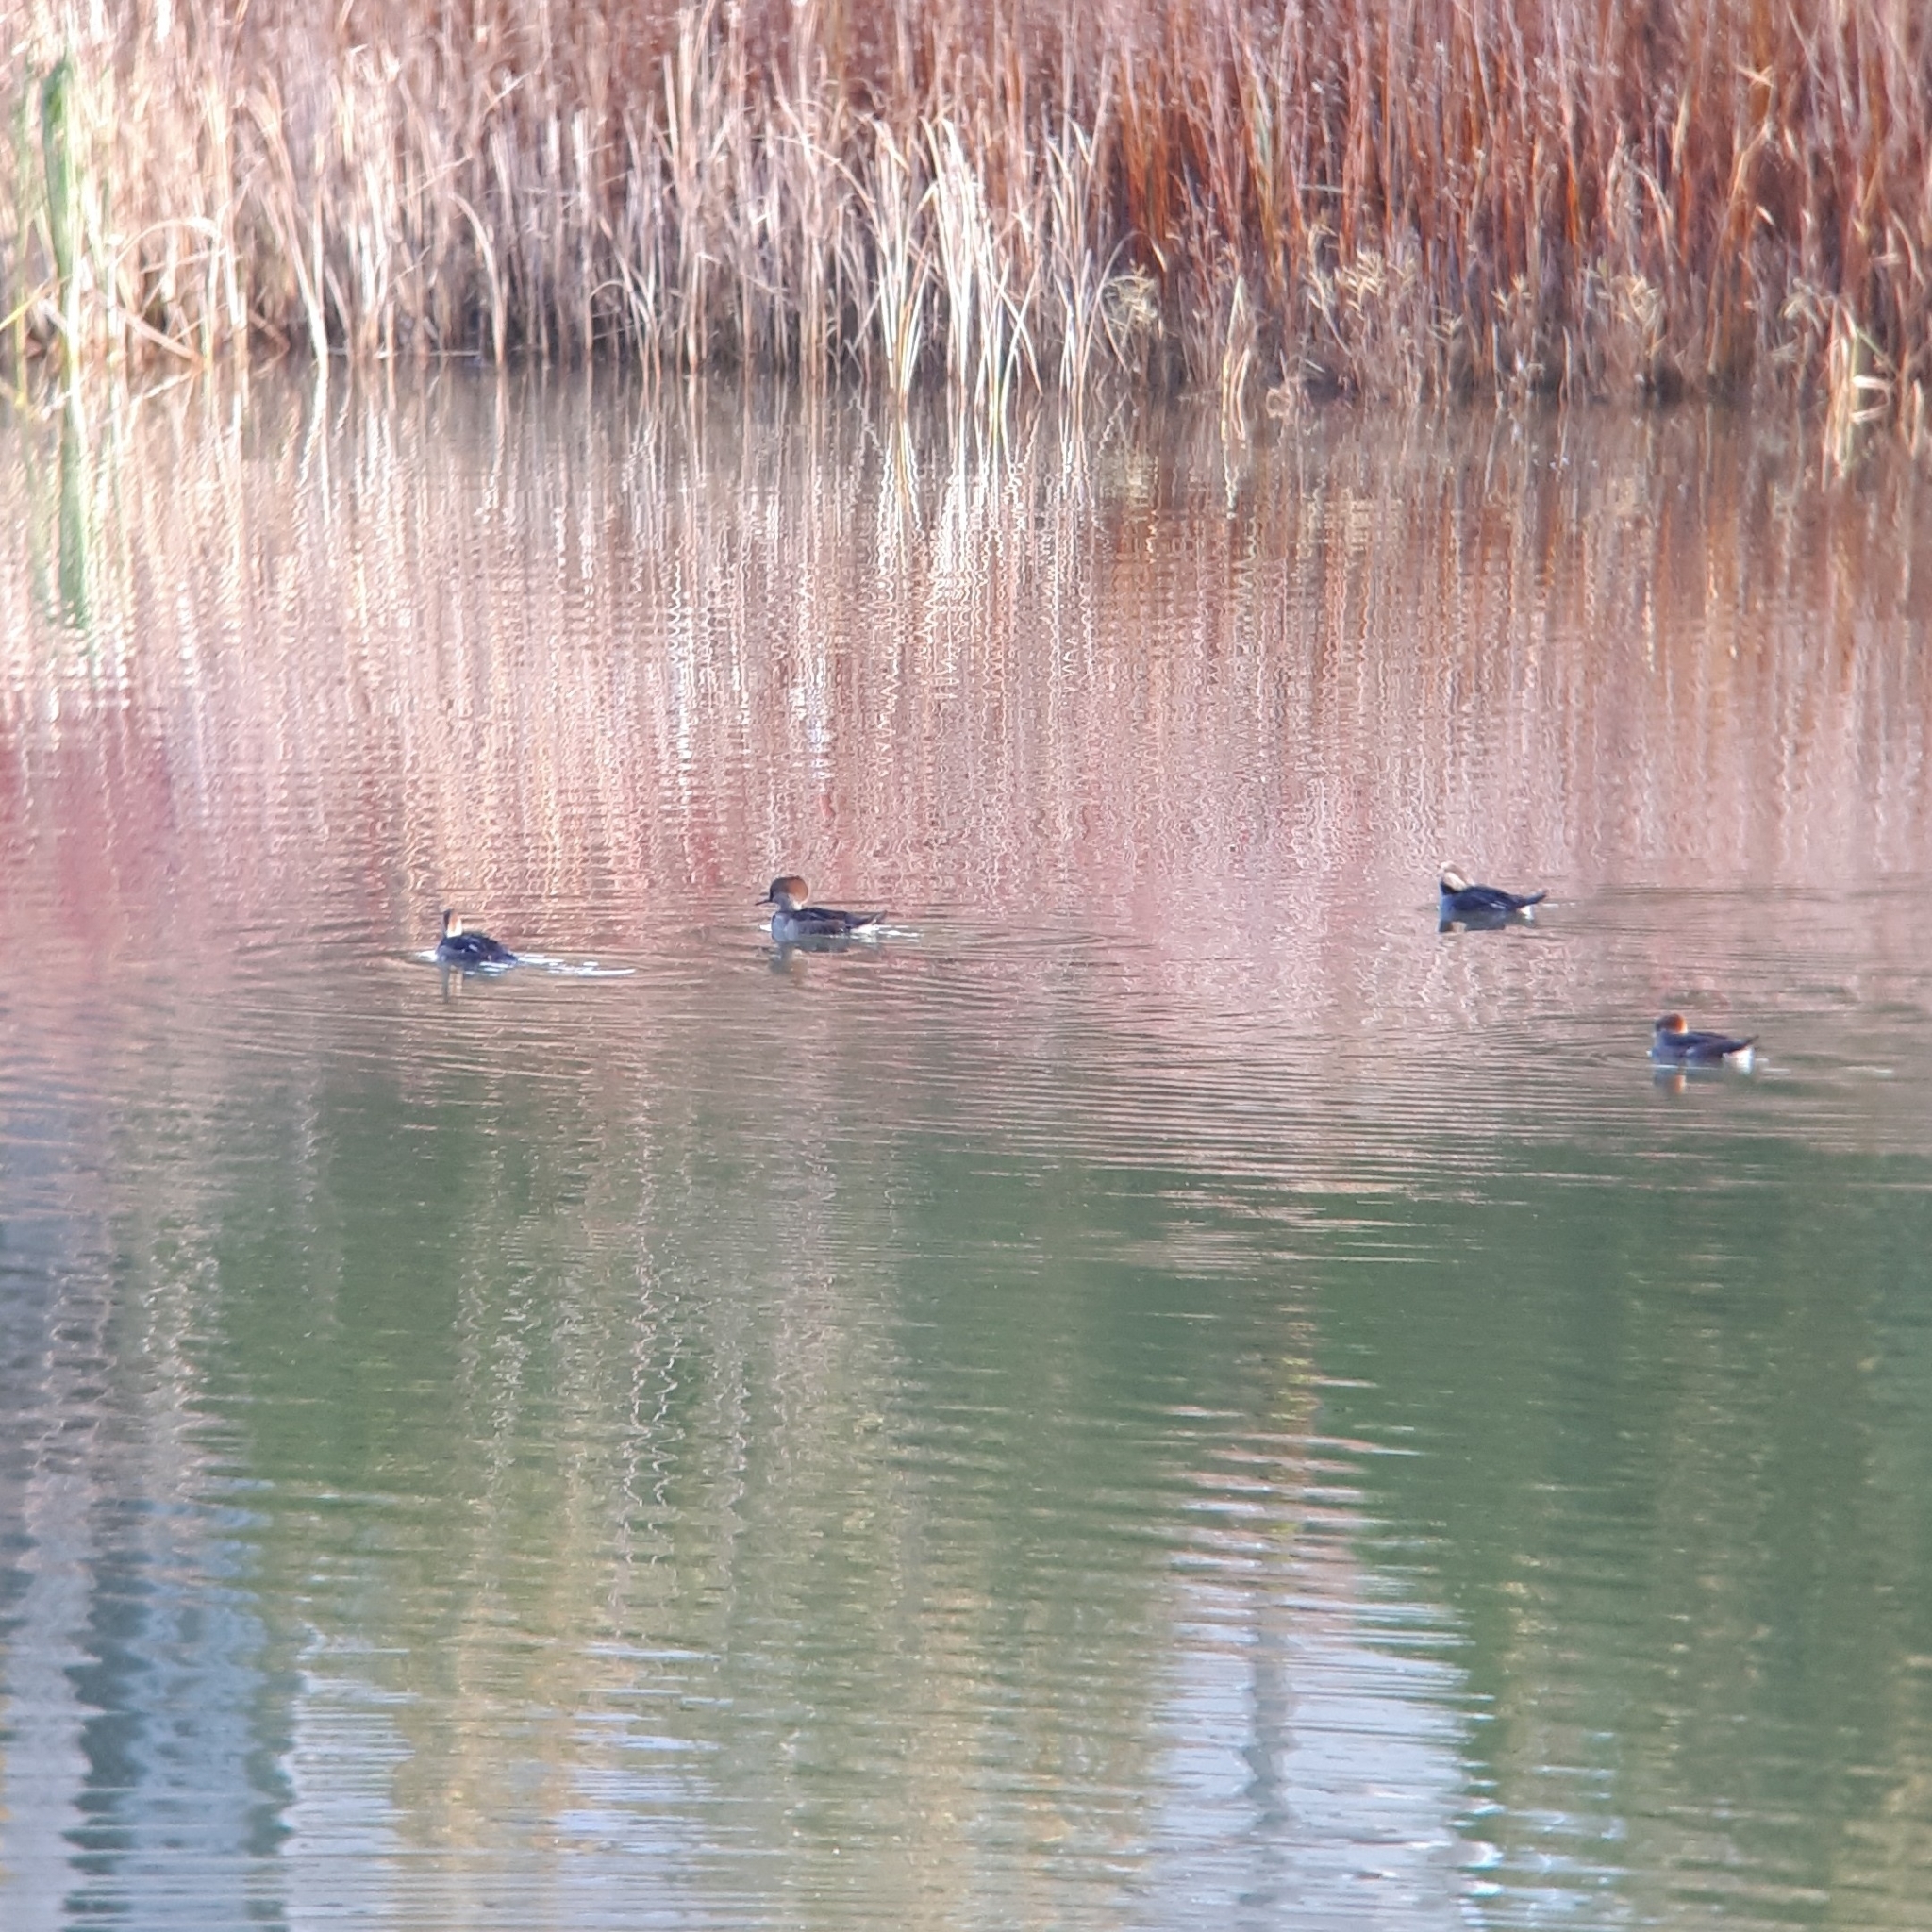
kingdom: Animalia
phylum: Chordata
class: Aves
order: Anseriformes
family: Anatidae
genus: Lophodytes
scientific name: Lophodytes cucullatus
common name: Hooded merganser
